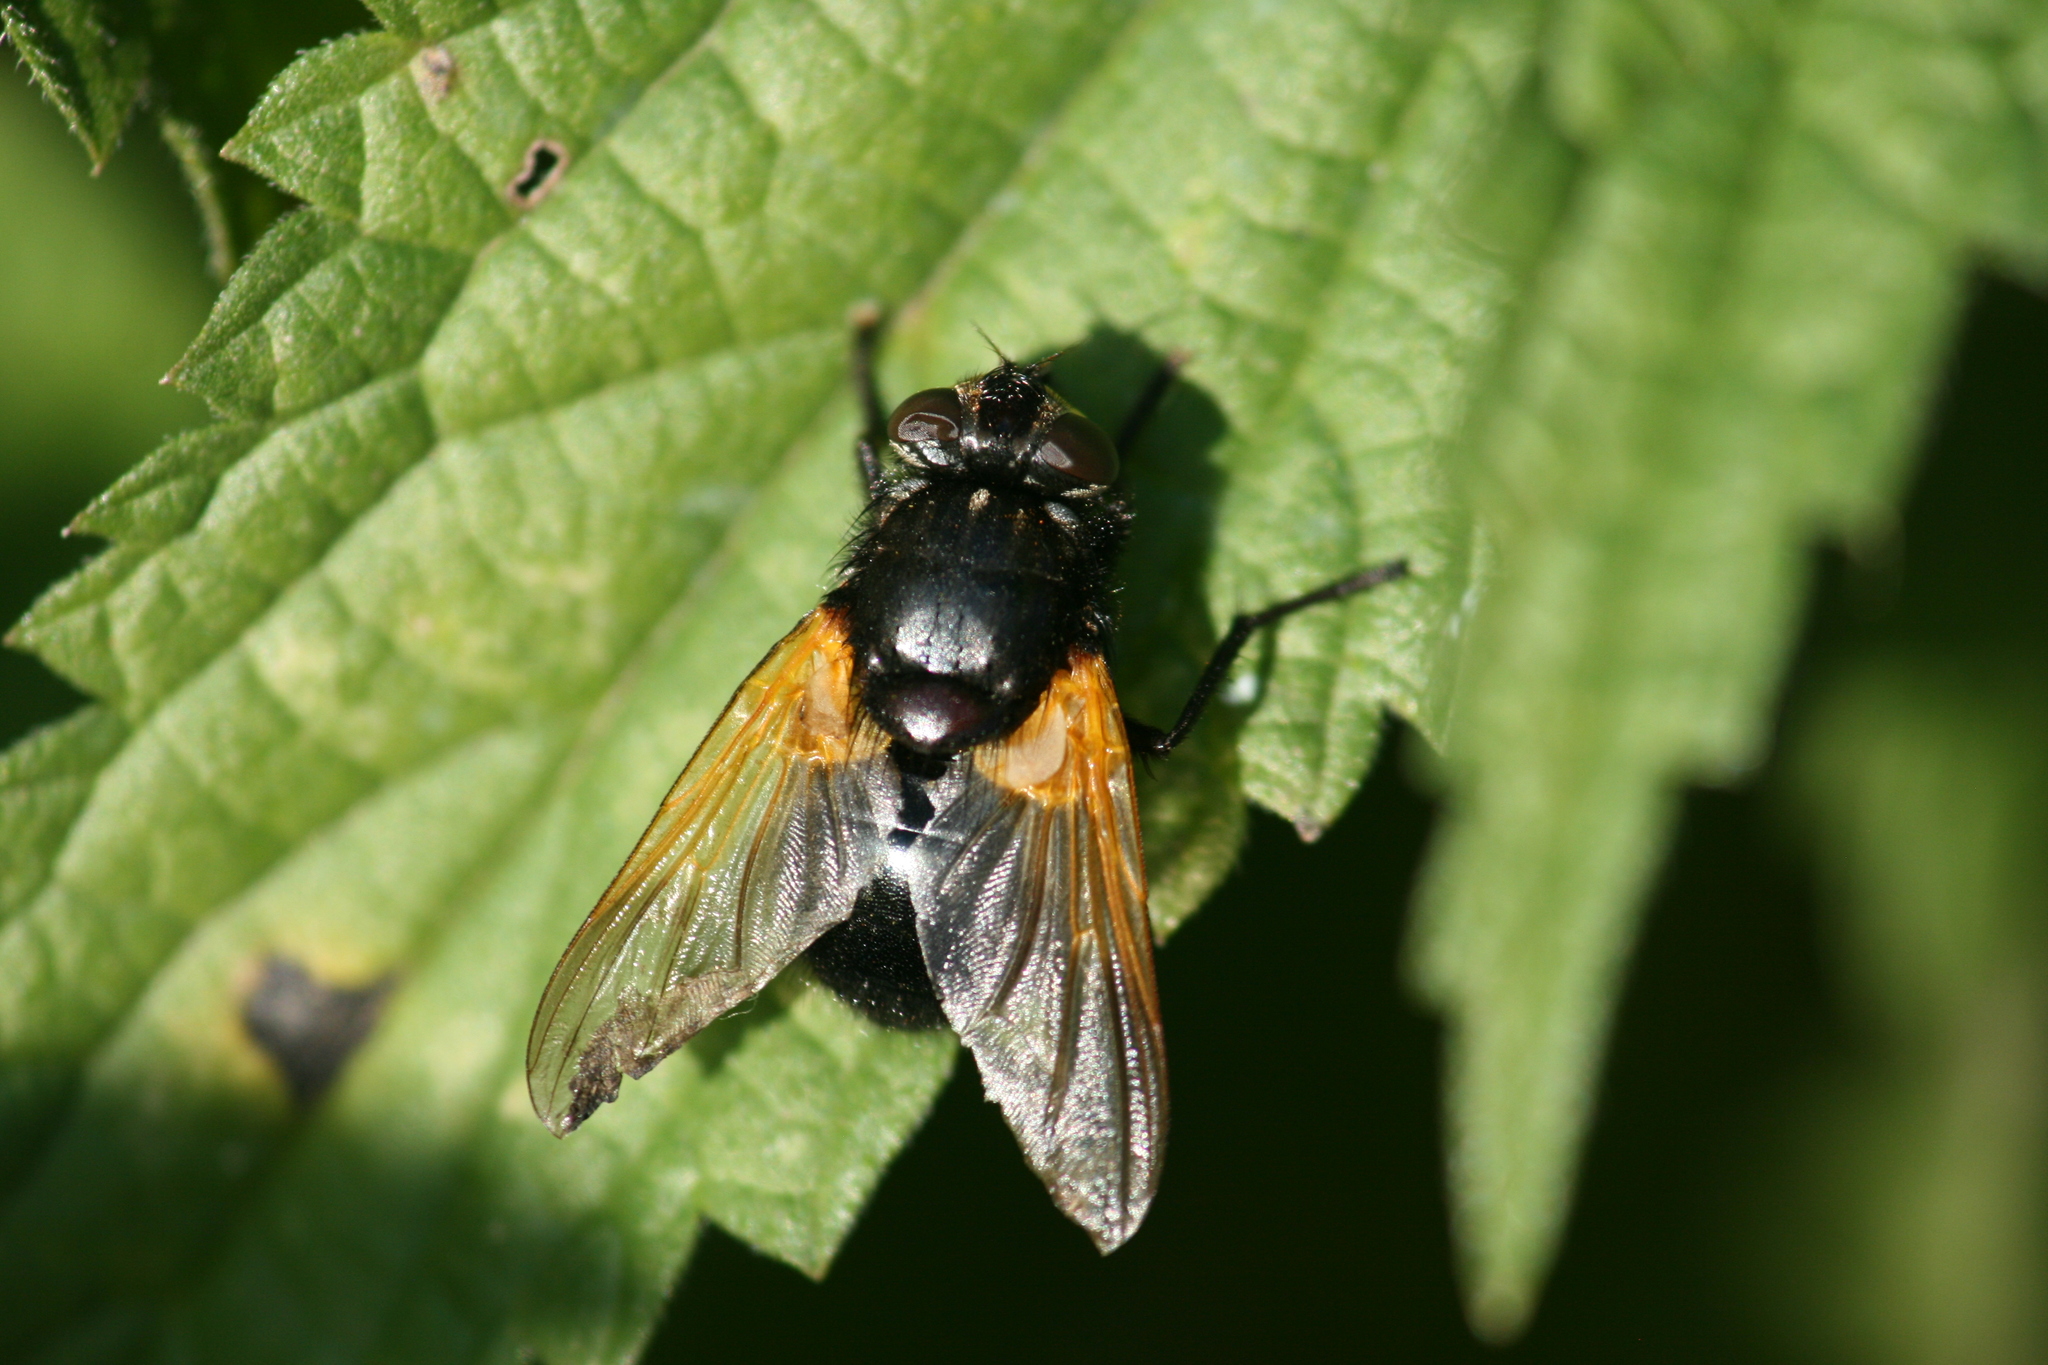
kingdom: Animalia
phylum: Arthropoda
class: Insecta
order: Diptera
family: Muscidae
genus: Mesembrina
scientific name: Mesembrina meridiana
